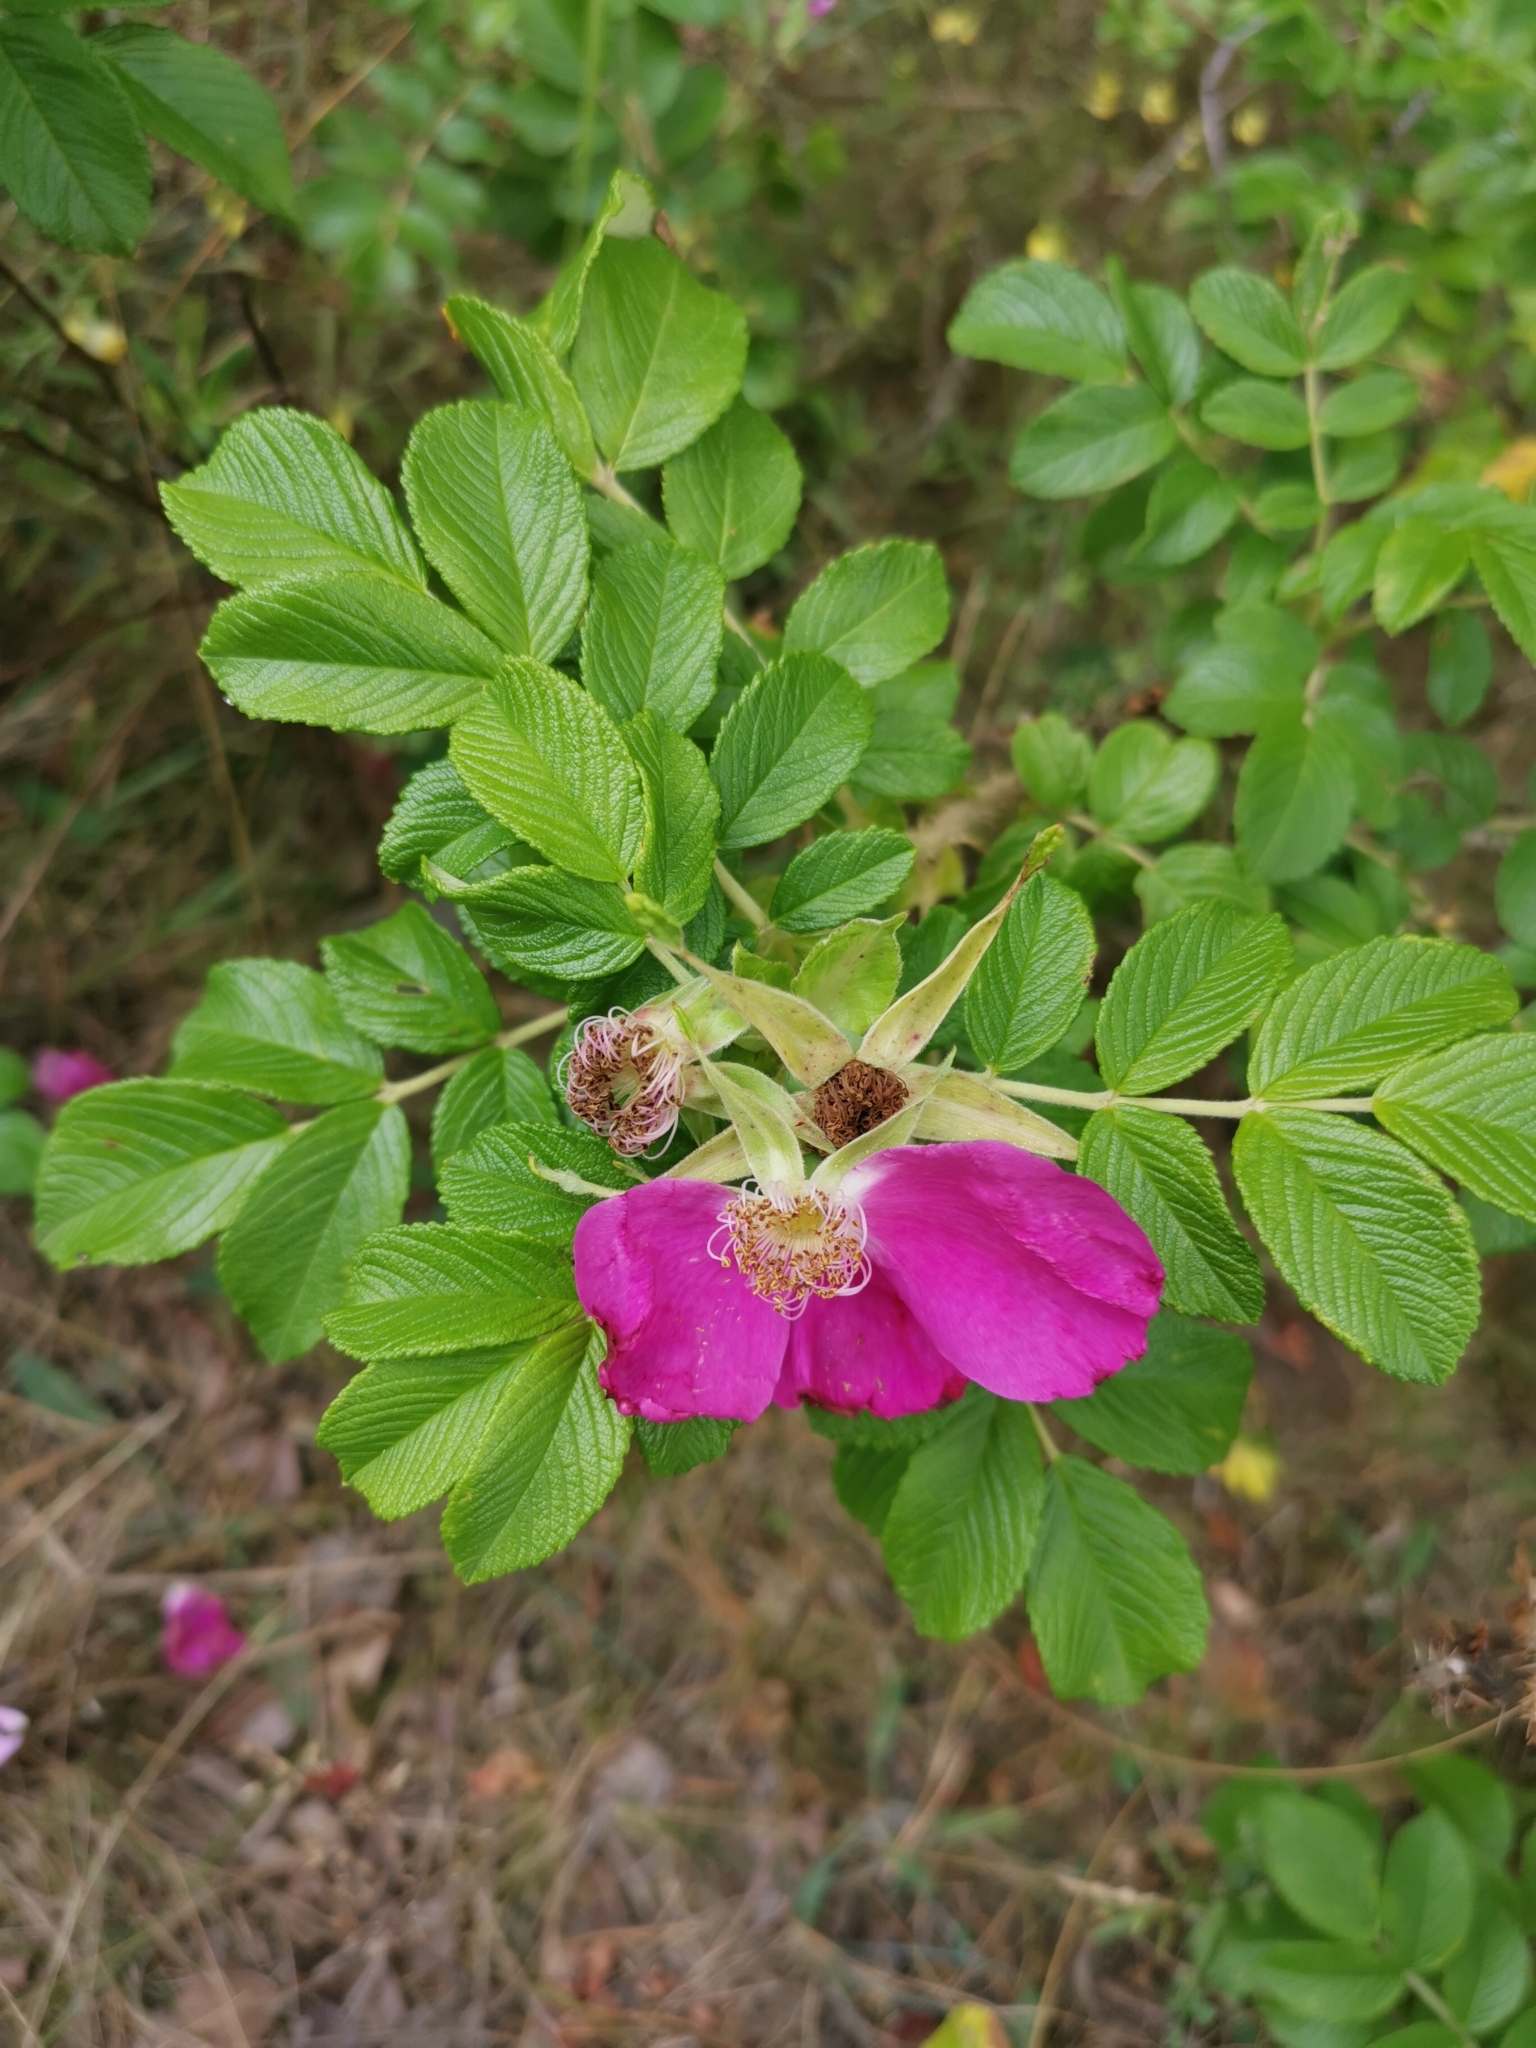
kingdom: Plantae
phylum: Tracheophyta
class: Magnoliopsida
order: Rosales
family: Rosaceae
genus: Rosa
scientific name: Rosa rugosa
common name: Japanese rose
